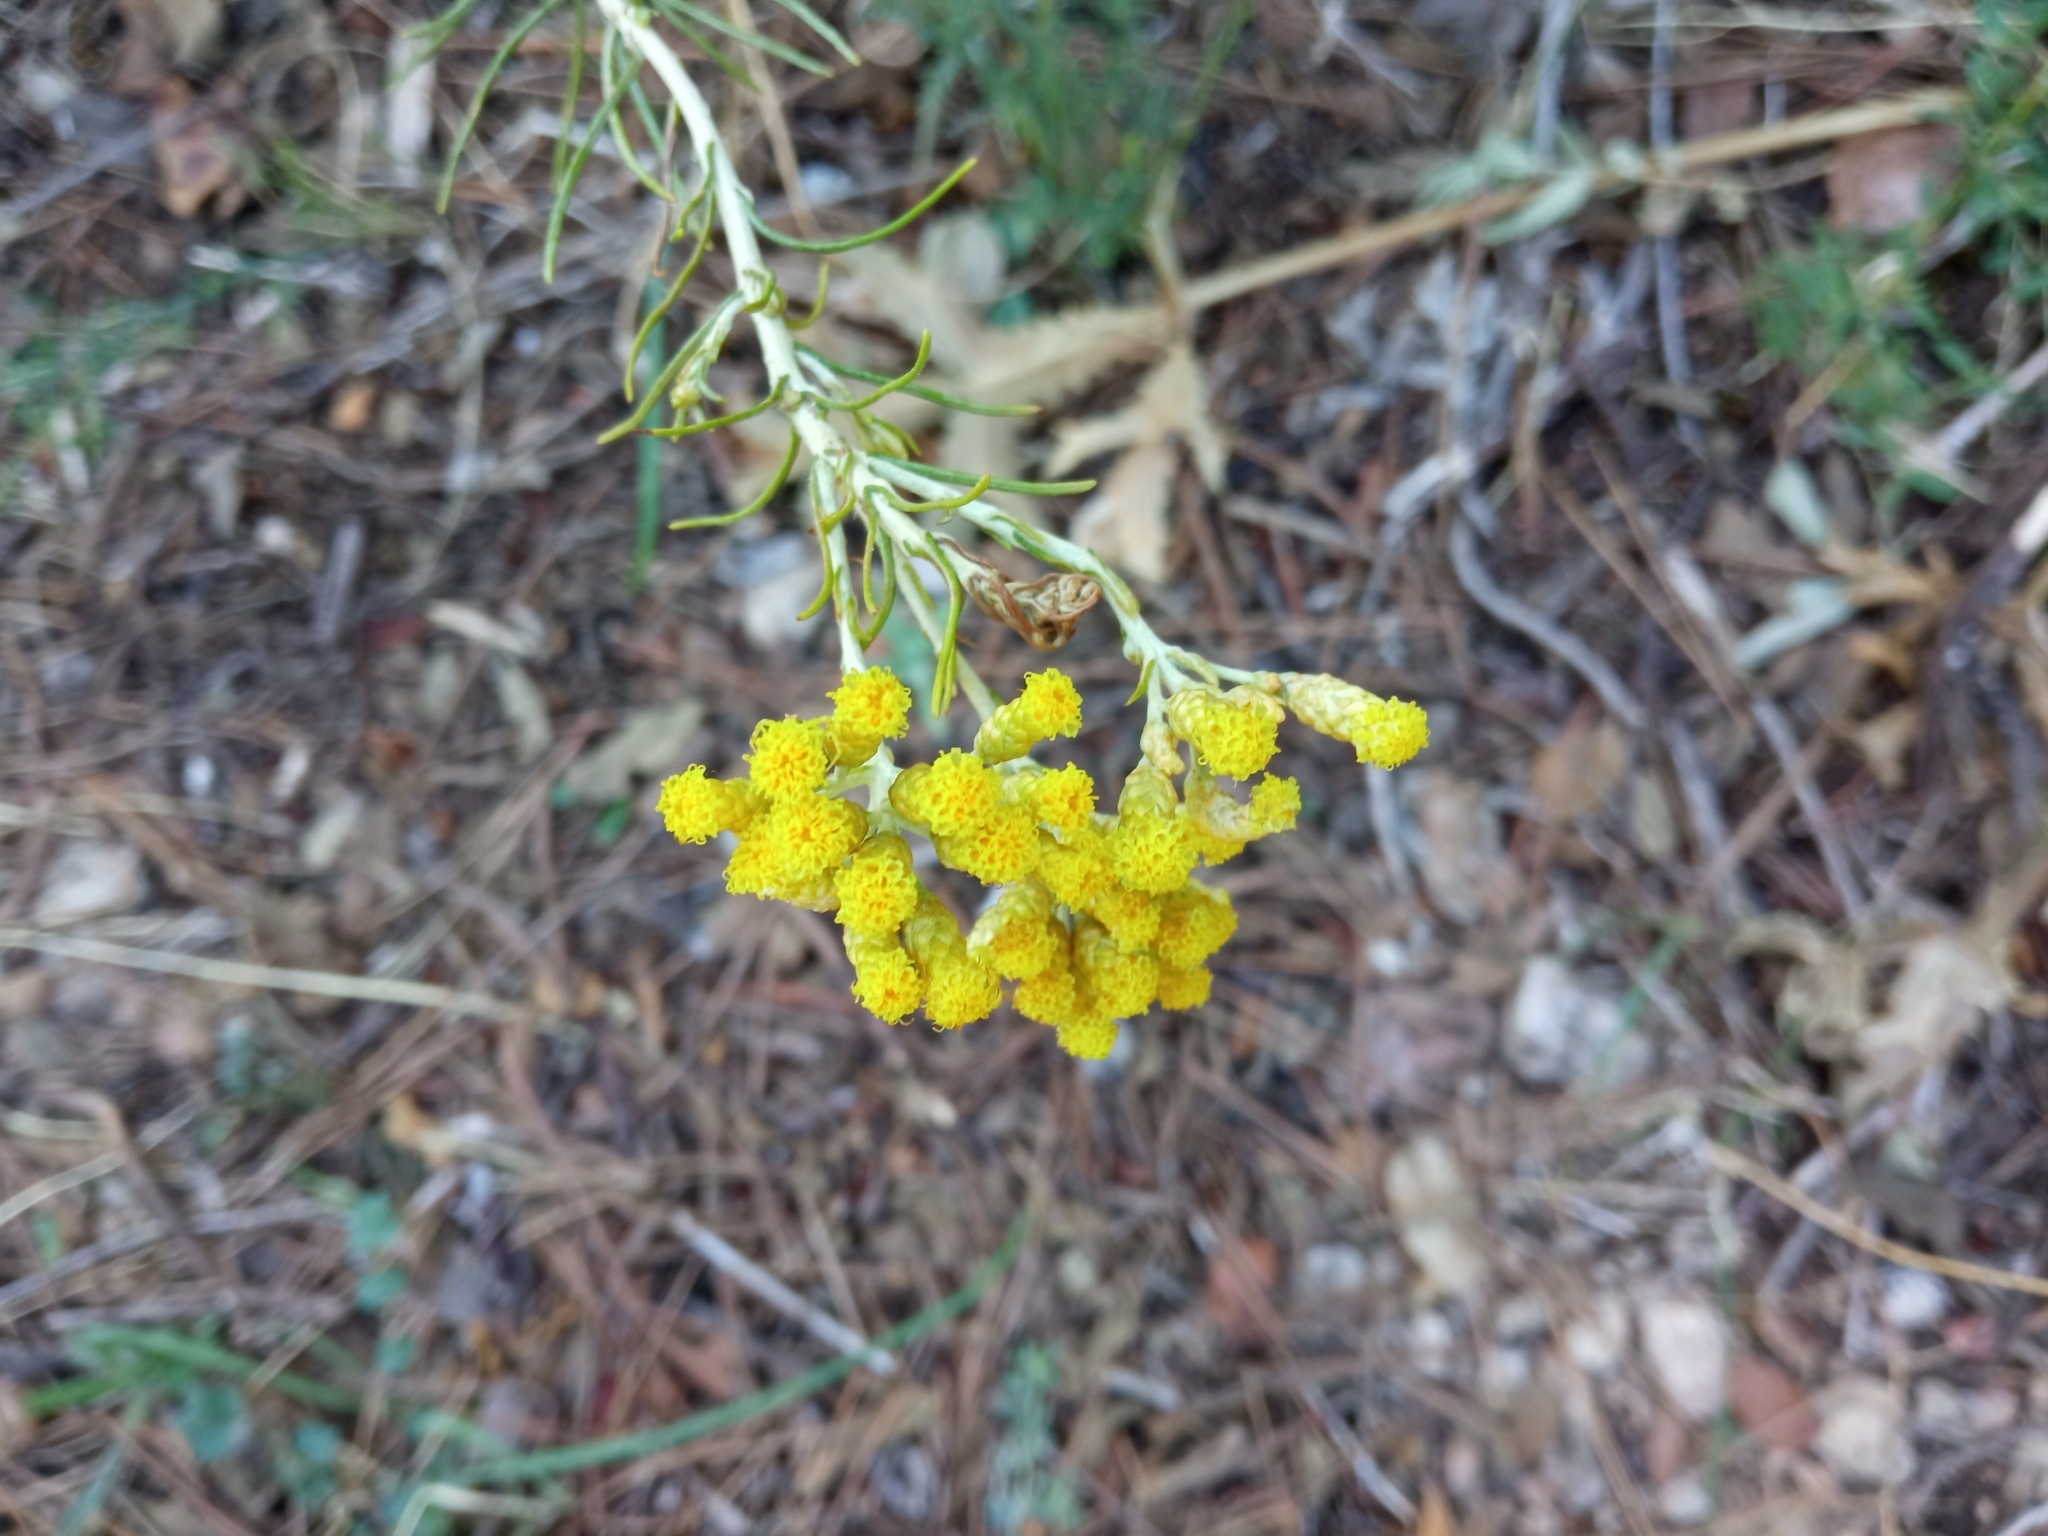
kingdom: Plantae
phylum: Tracheophyta
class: Magnoliopsida
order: Asterales
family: Asteraceae
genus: Helichrysum
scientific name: Helichrysum serotinum
